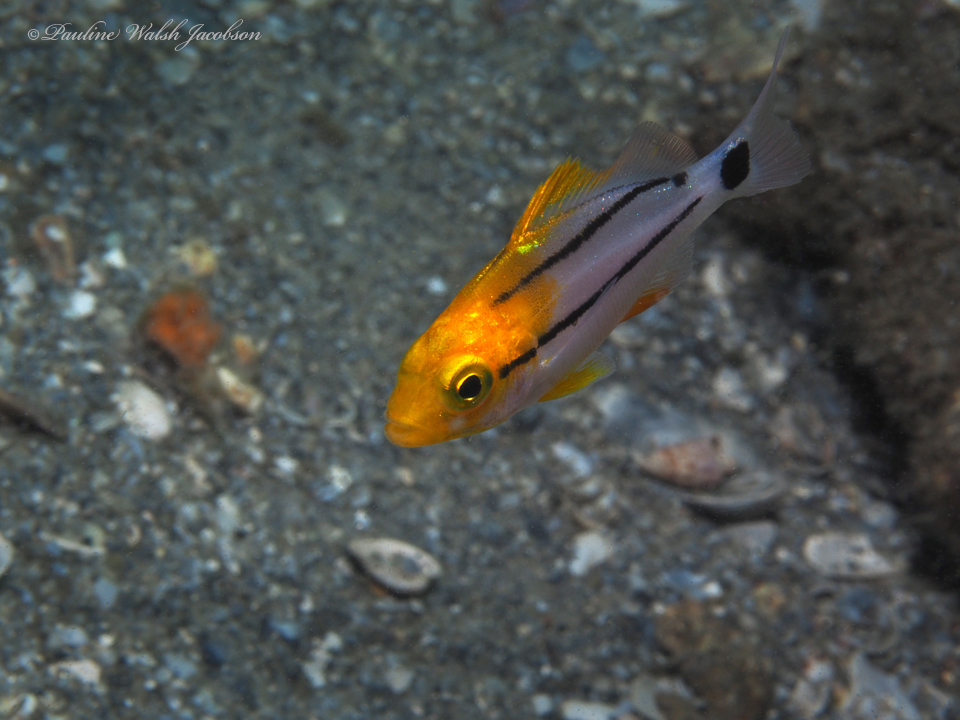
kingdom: Animalia
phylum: Chordata
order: Perciformes
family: Haemulidae
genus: Anisotremus
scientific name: Anisotremus virginicus
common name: Porkfish
